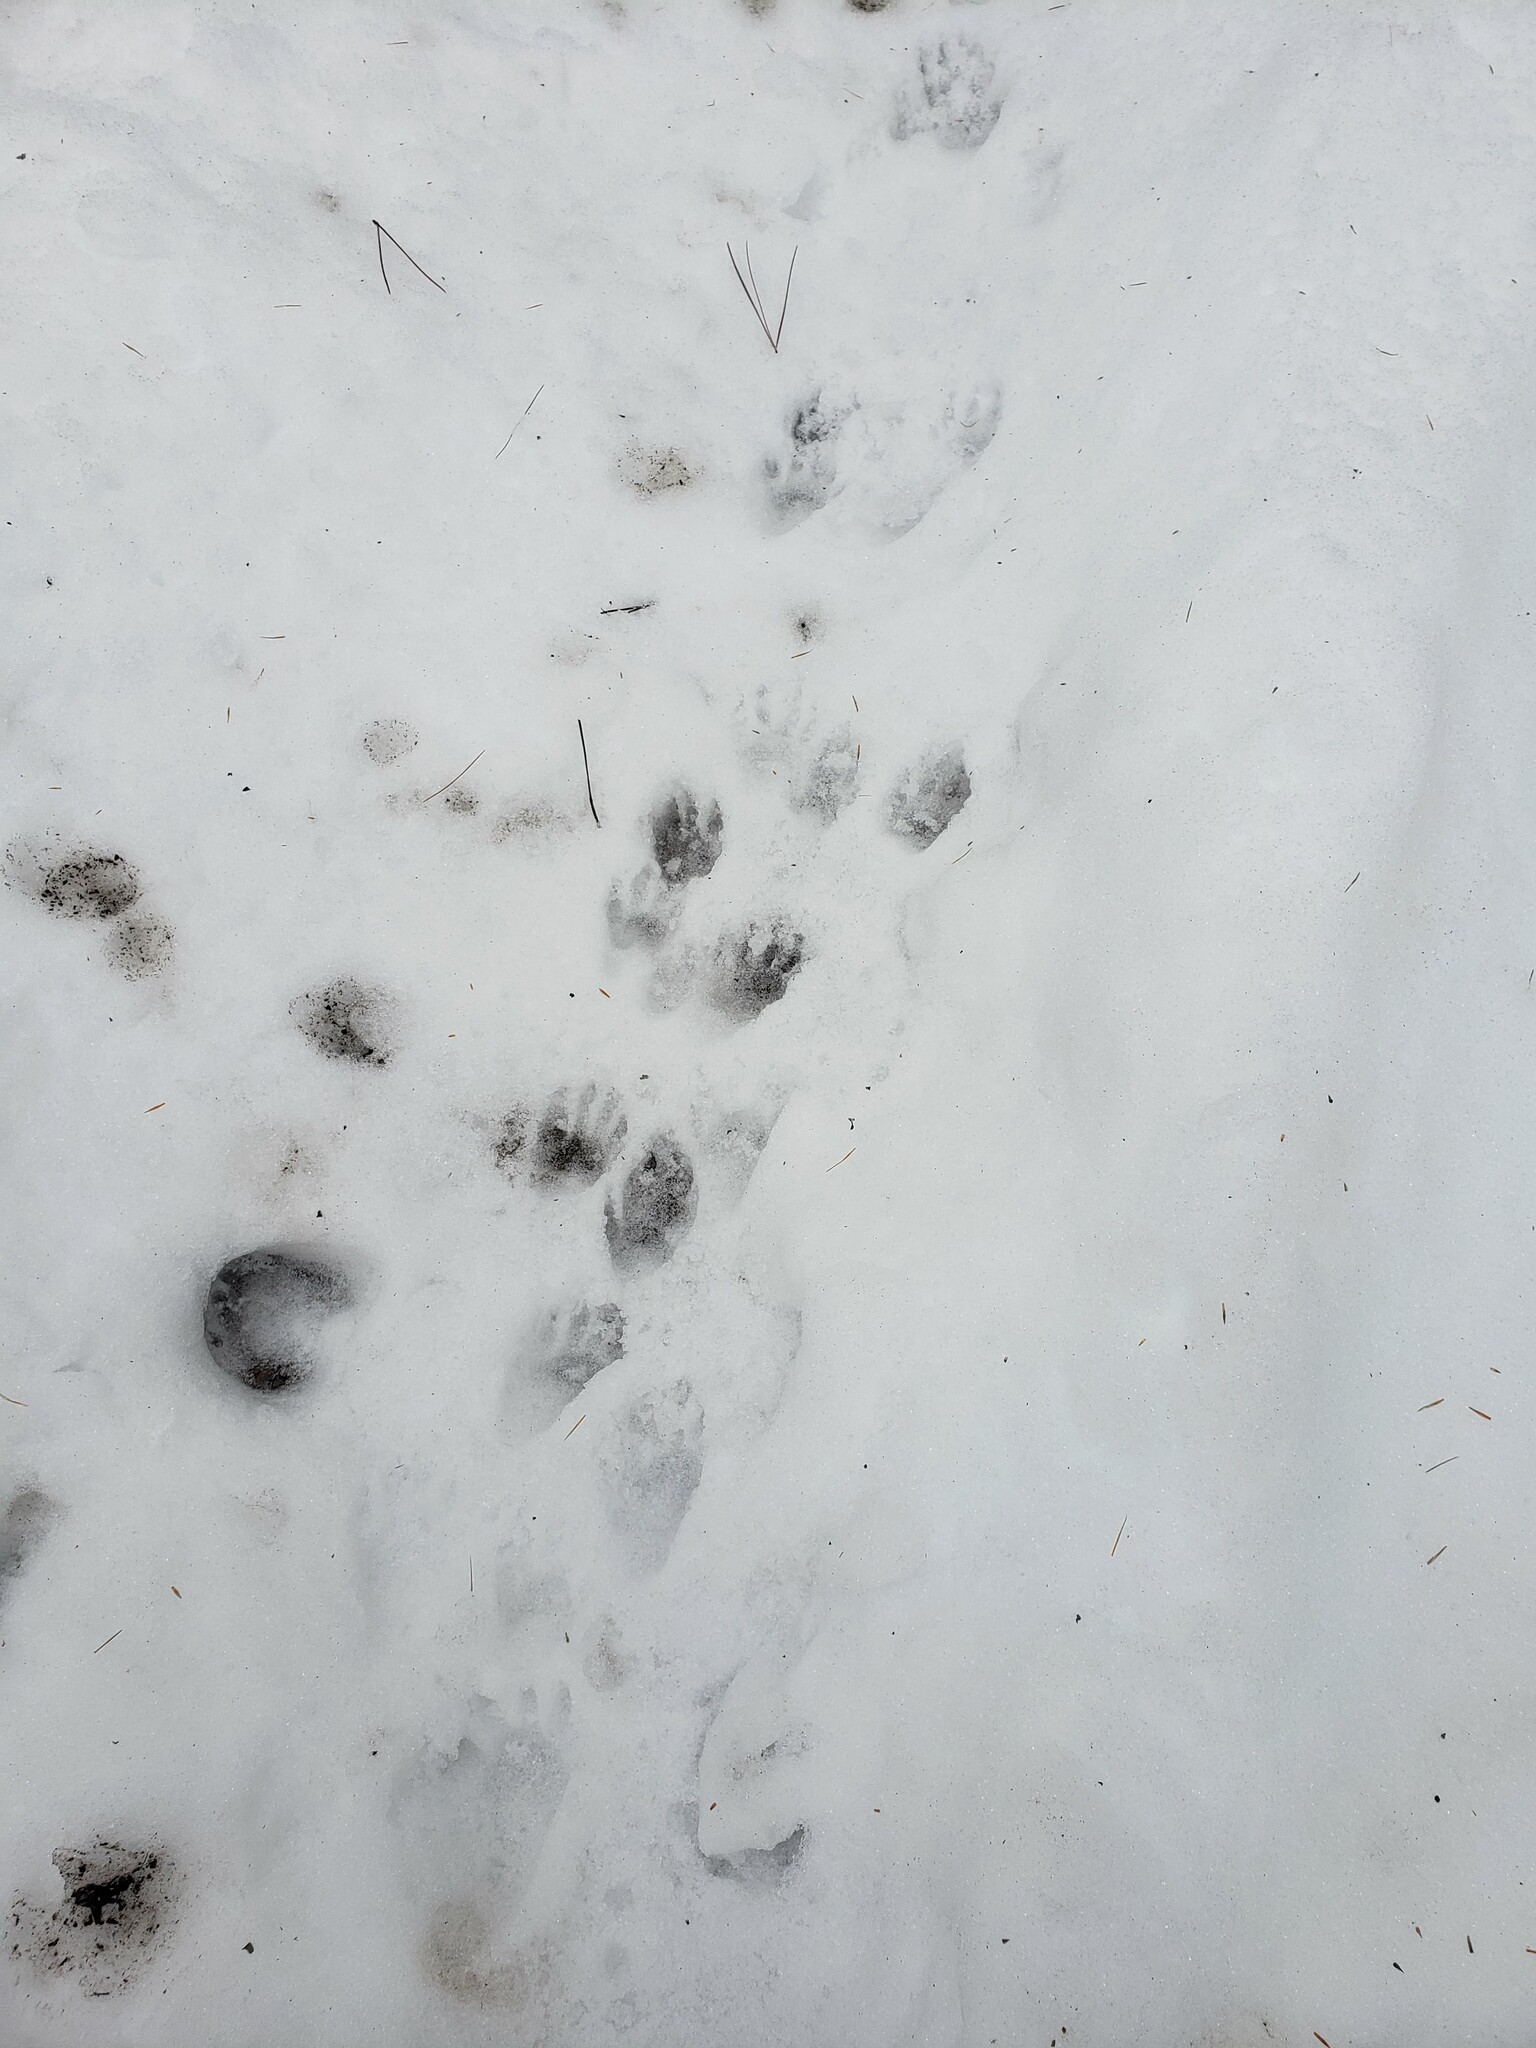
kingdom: Animalia
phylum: Chordata
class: Mammalia
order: Carnivora
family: Procyonidae
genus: Procyon
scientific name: Procyon lotor
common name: Raccoon
